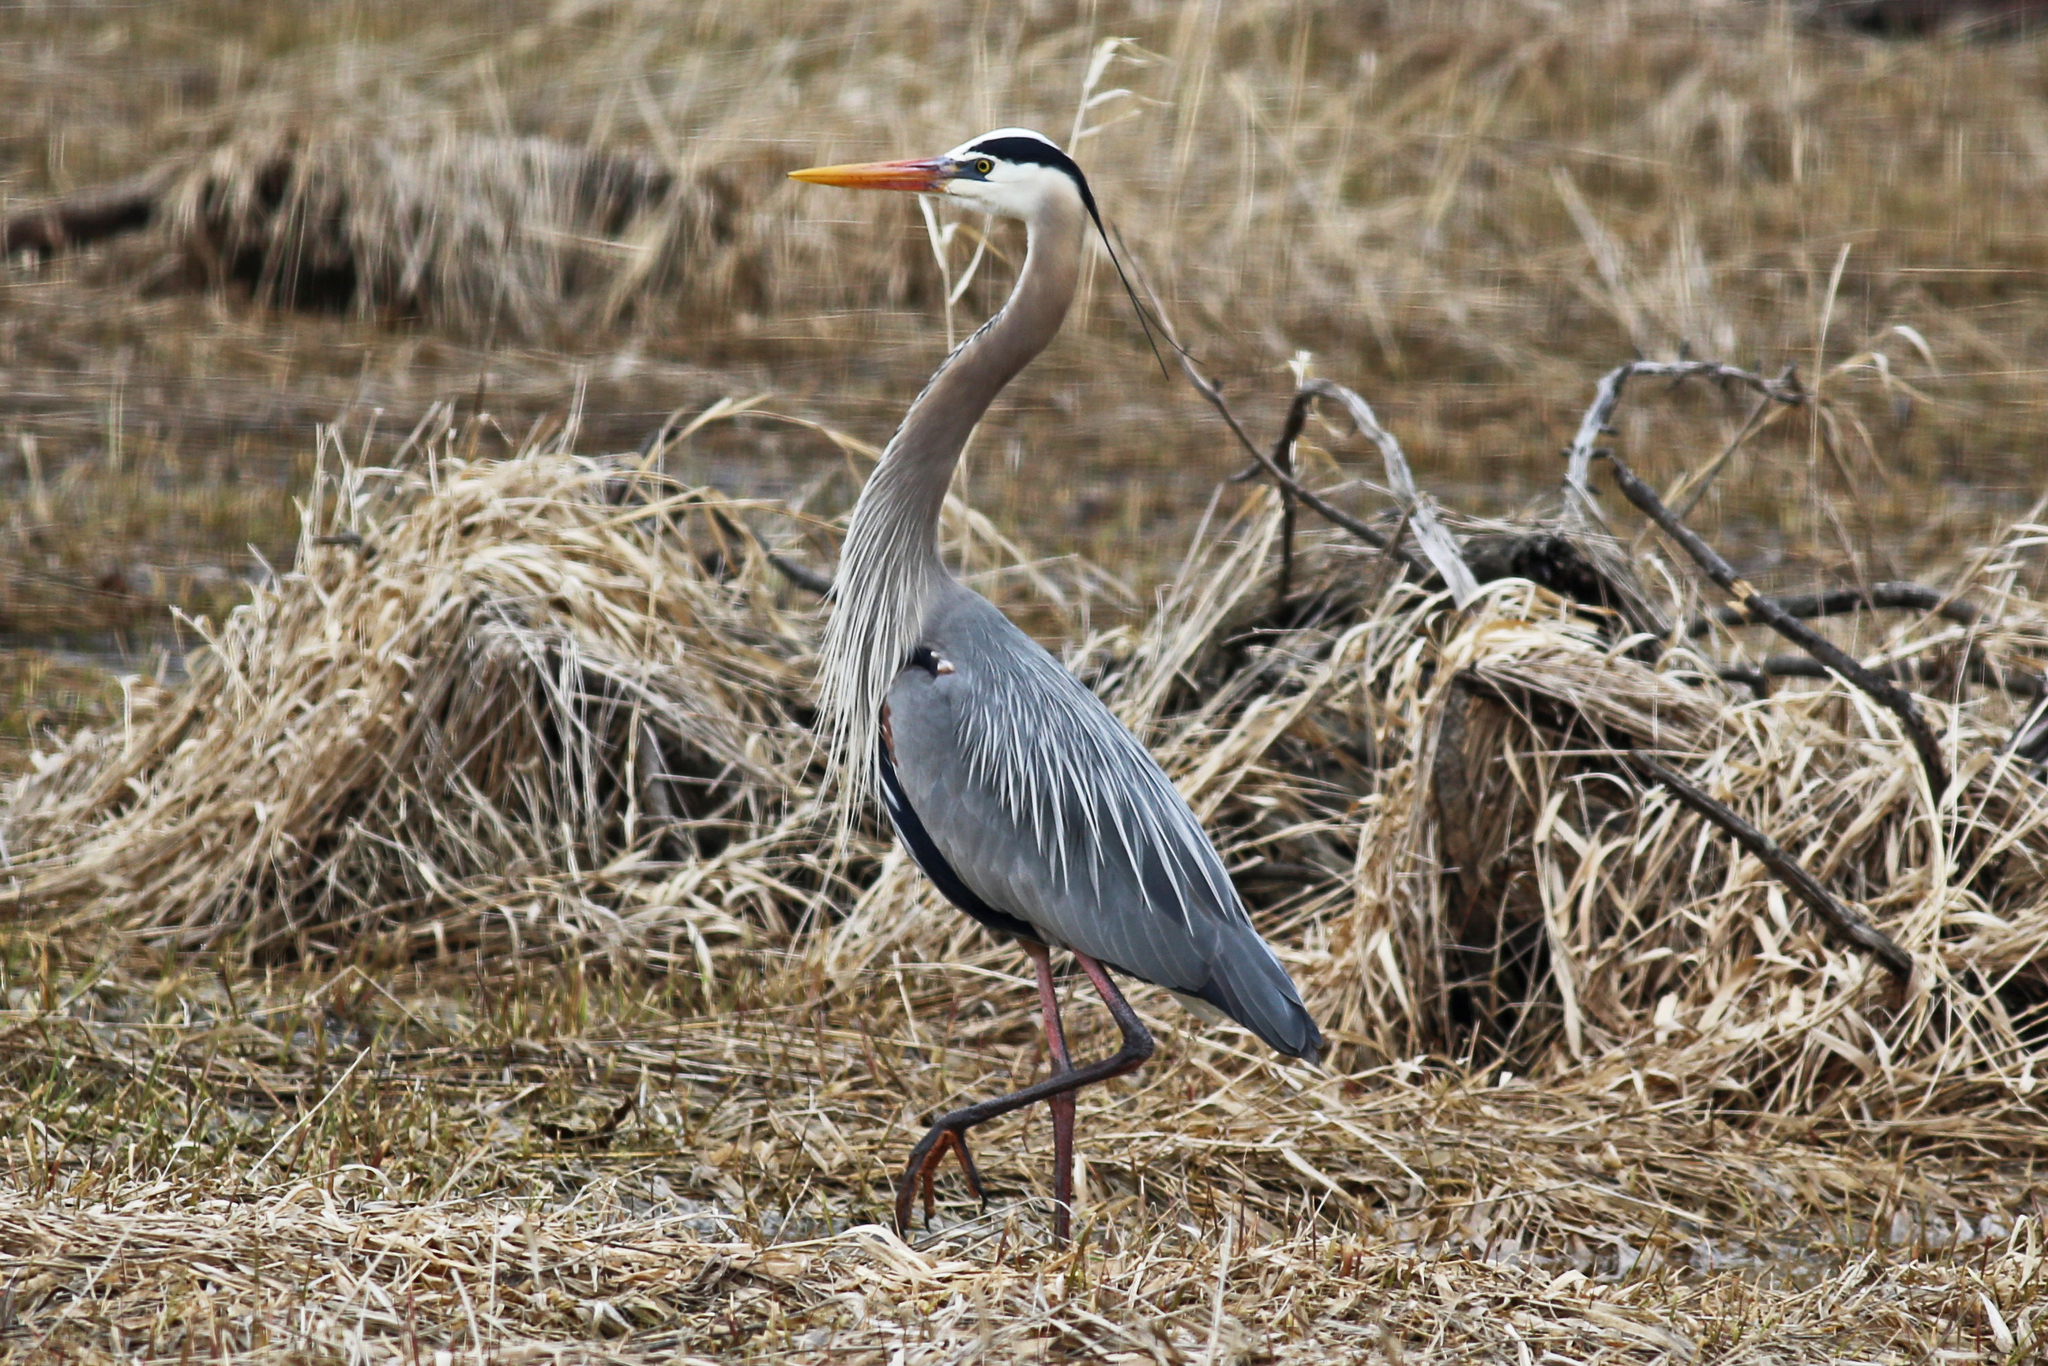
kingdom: Animalia
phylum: Chordata
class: Aves
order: Pelecaniformes
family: Ardeidae
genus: Ardea
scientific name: Ardea herodias
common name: Great blue heron
